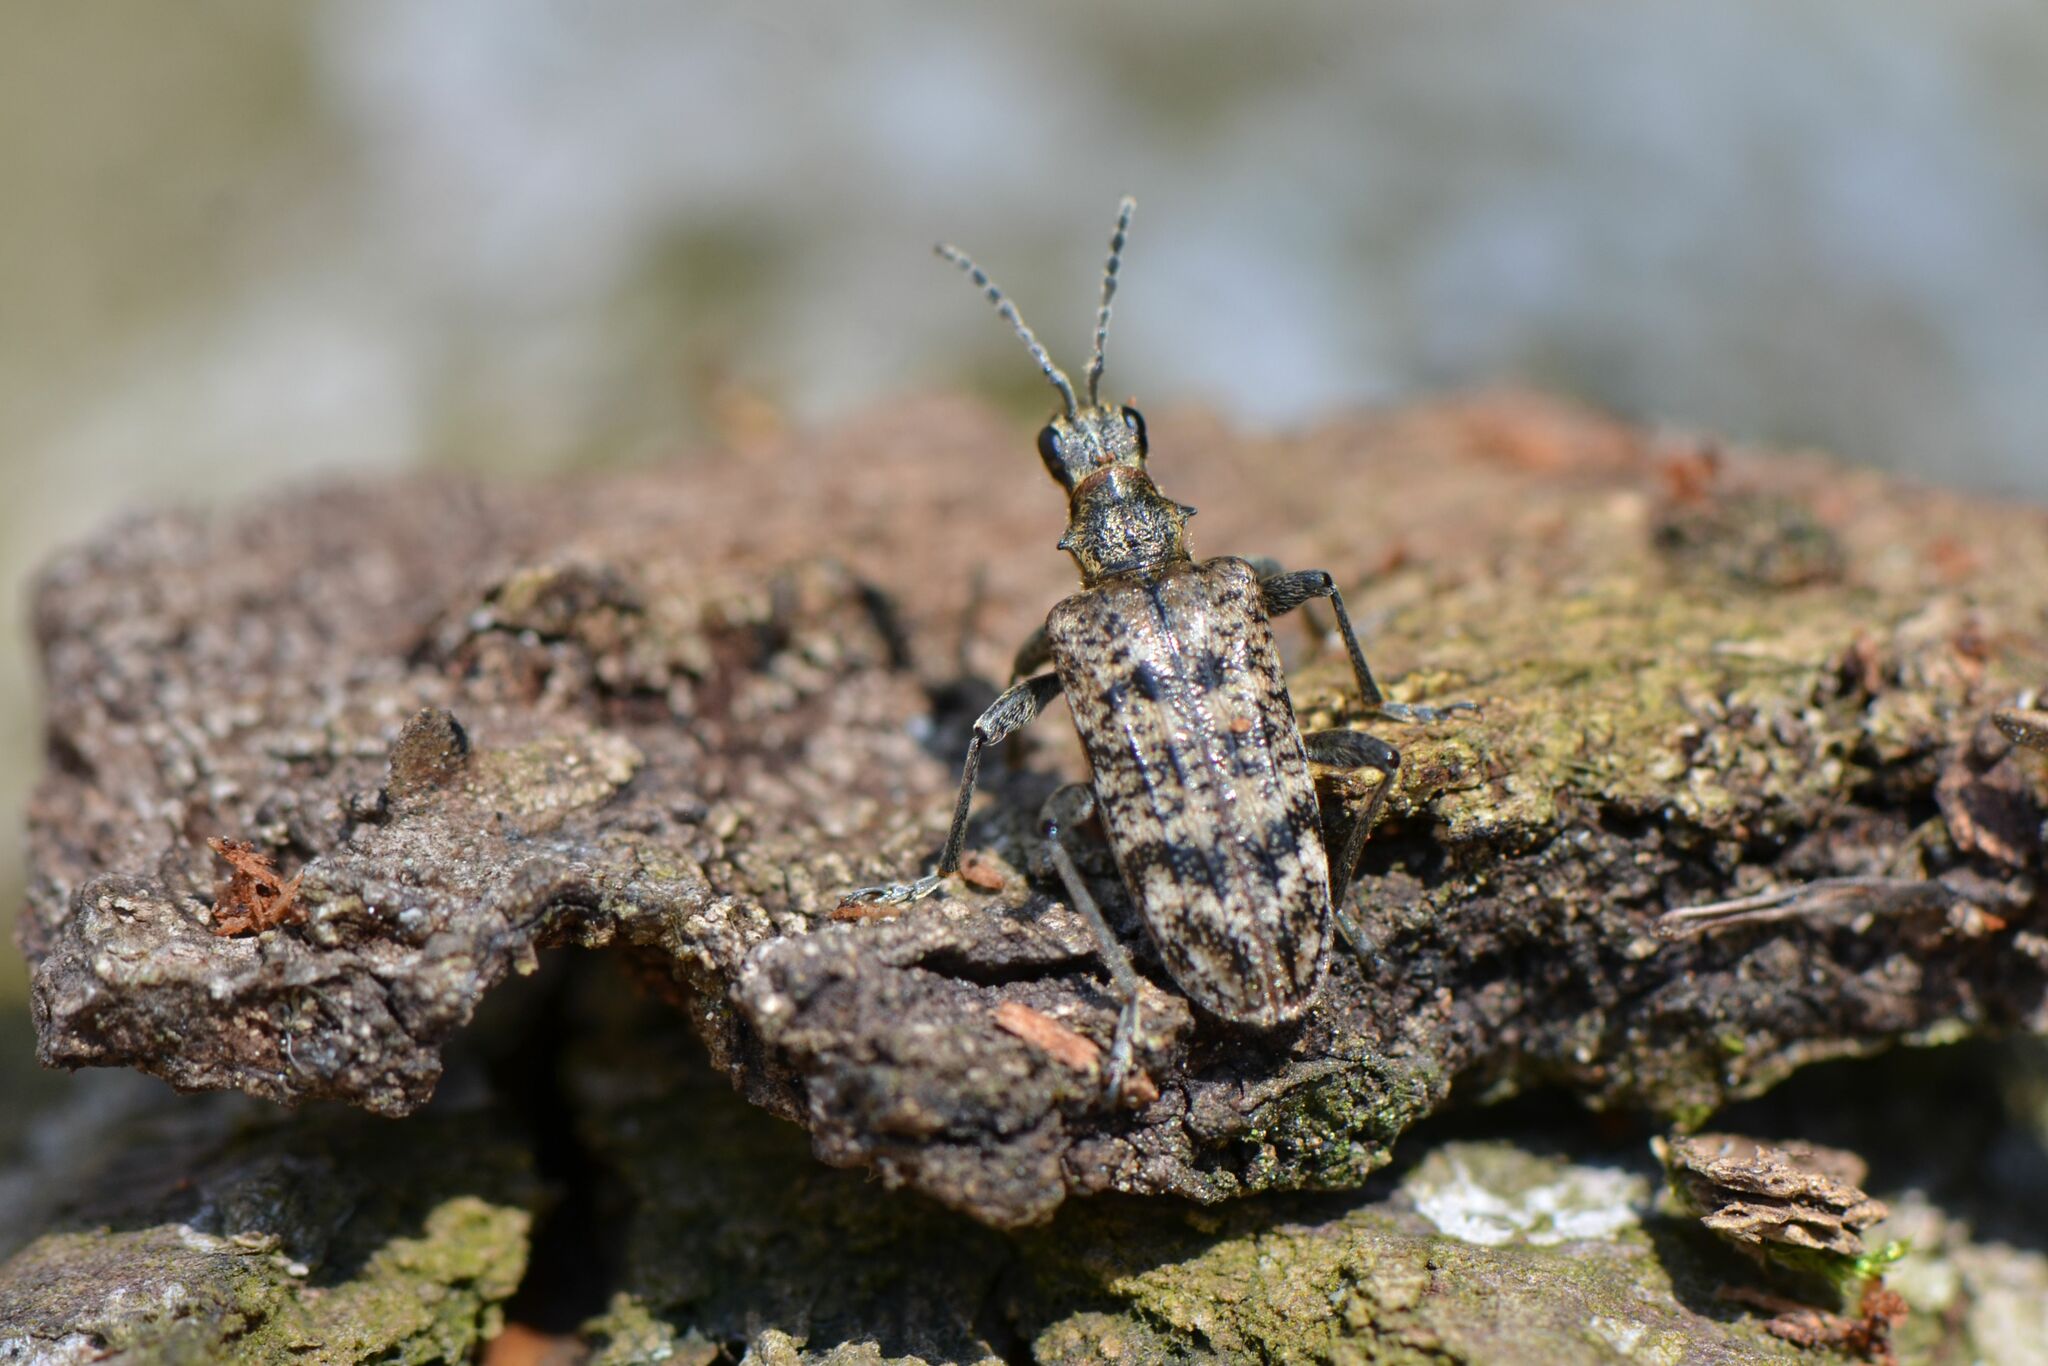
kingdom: Animalia
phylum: Arthropoda
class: Insecta
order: Coleoptera
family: Cerambycidae
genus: Rhagium
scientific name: Rhagium inquisitor
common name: Ribbed pine borer
